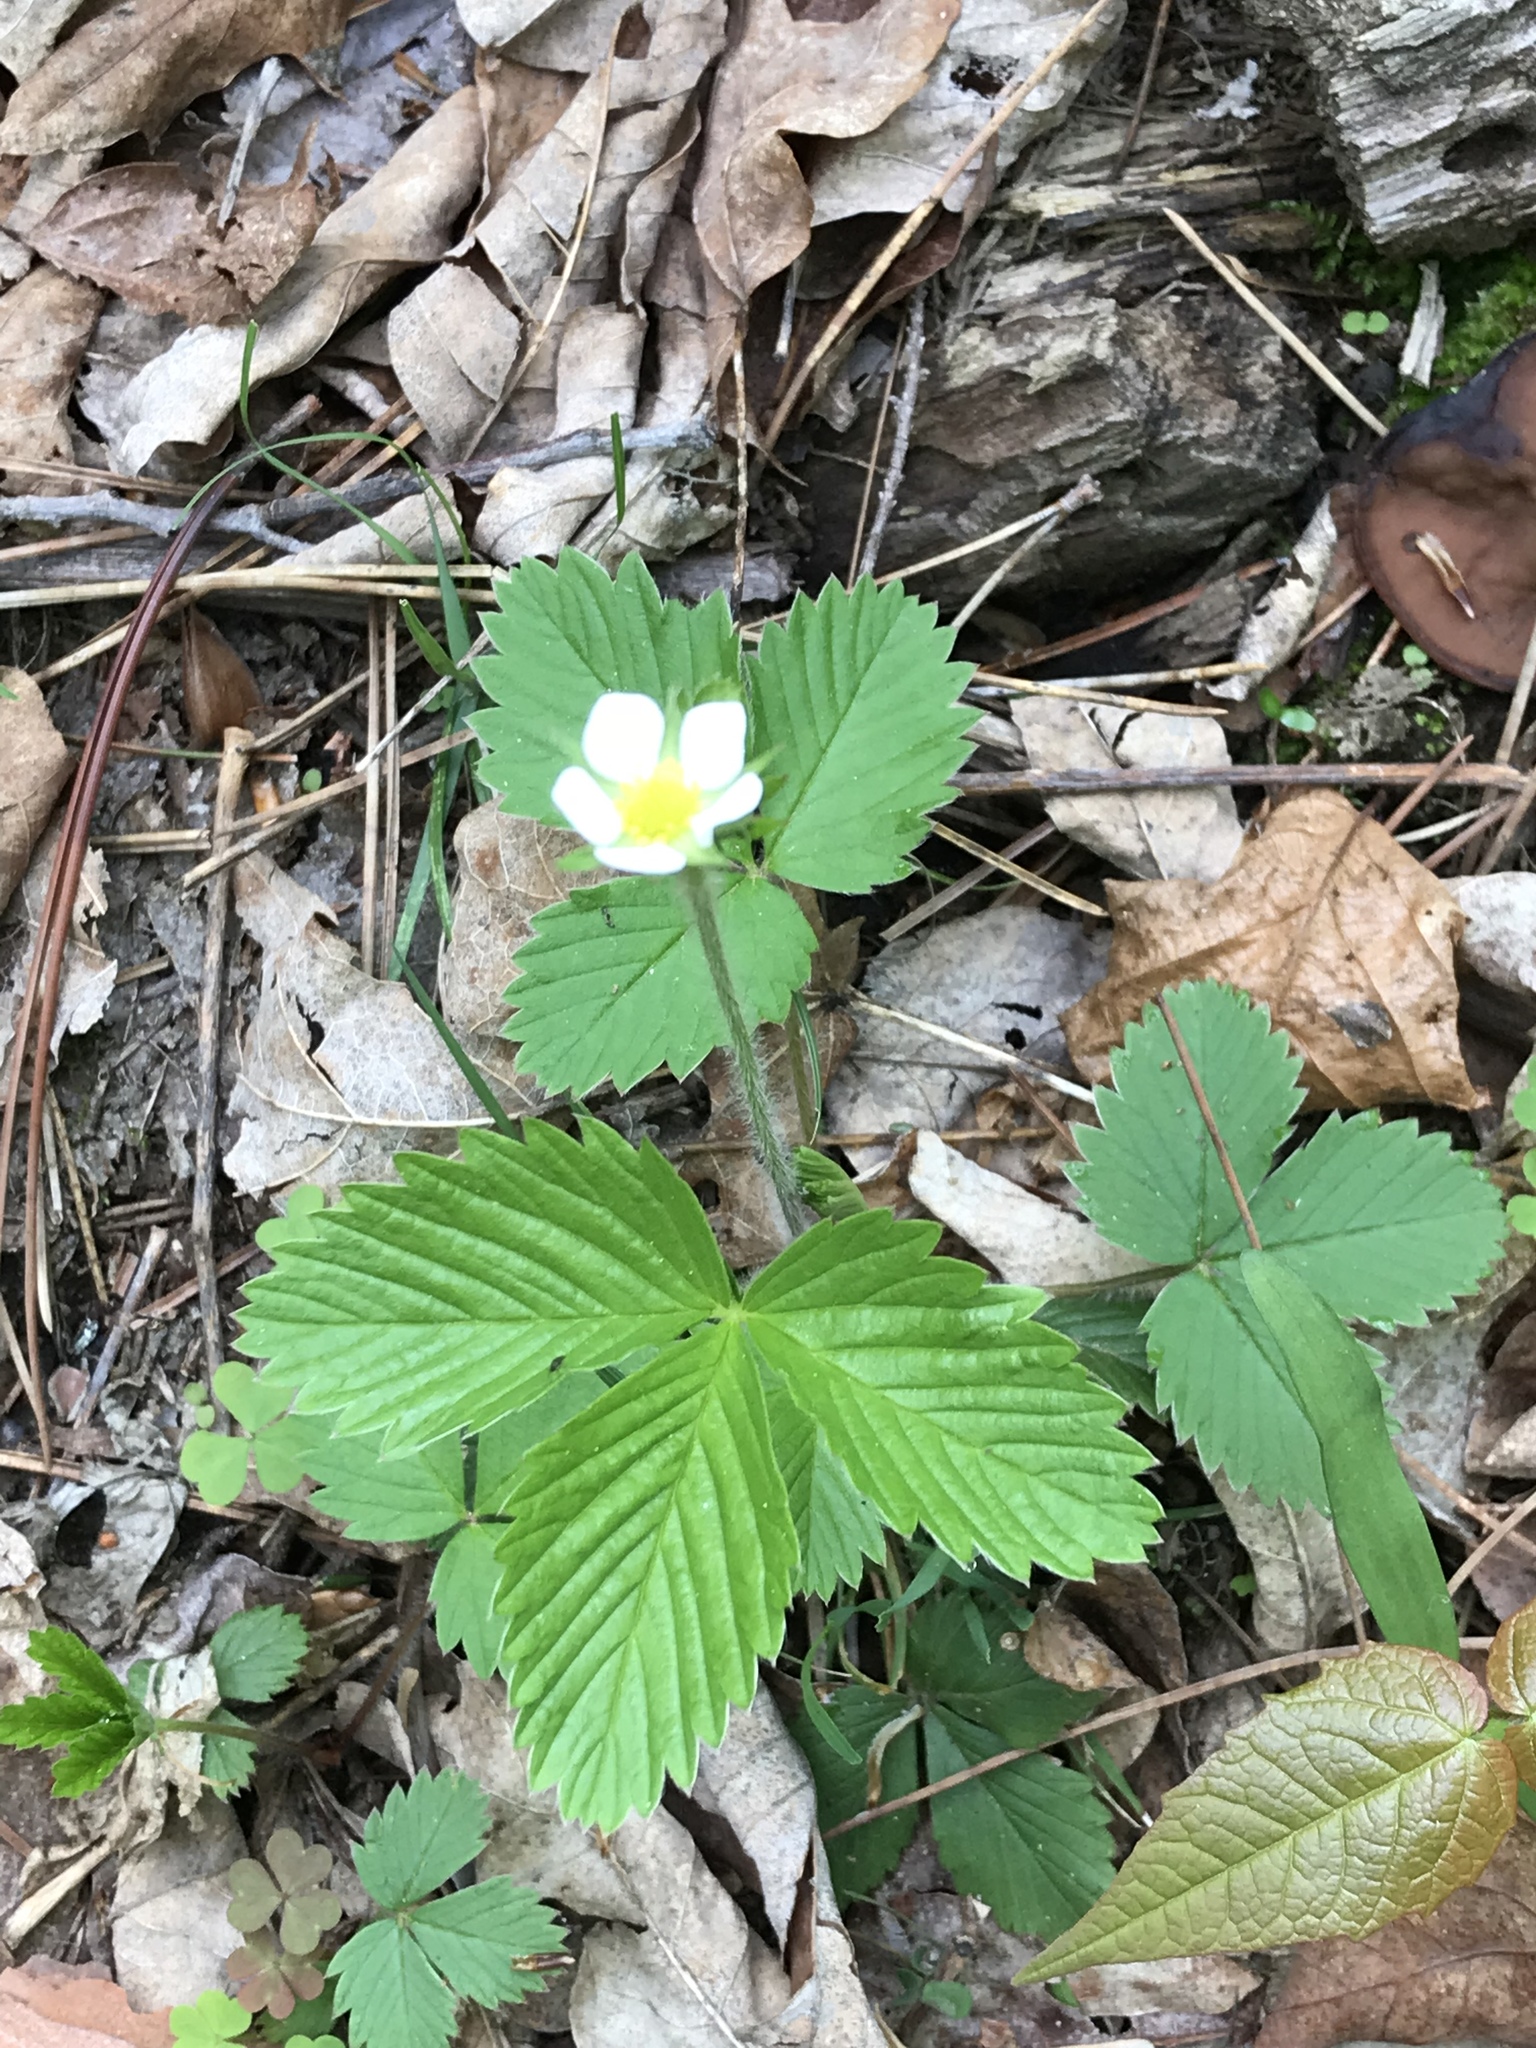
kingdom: Plantae
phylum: Tracheophyta
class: Magnoliopsida
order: Rosales
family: Rosaceae
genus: Fragaria
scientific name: Fragaria vesca
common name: Wild strawberry
